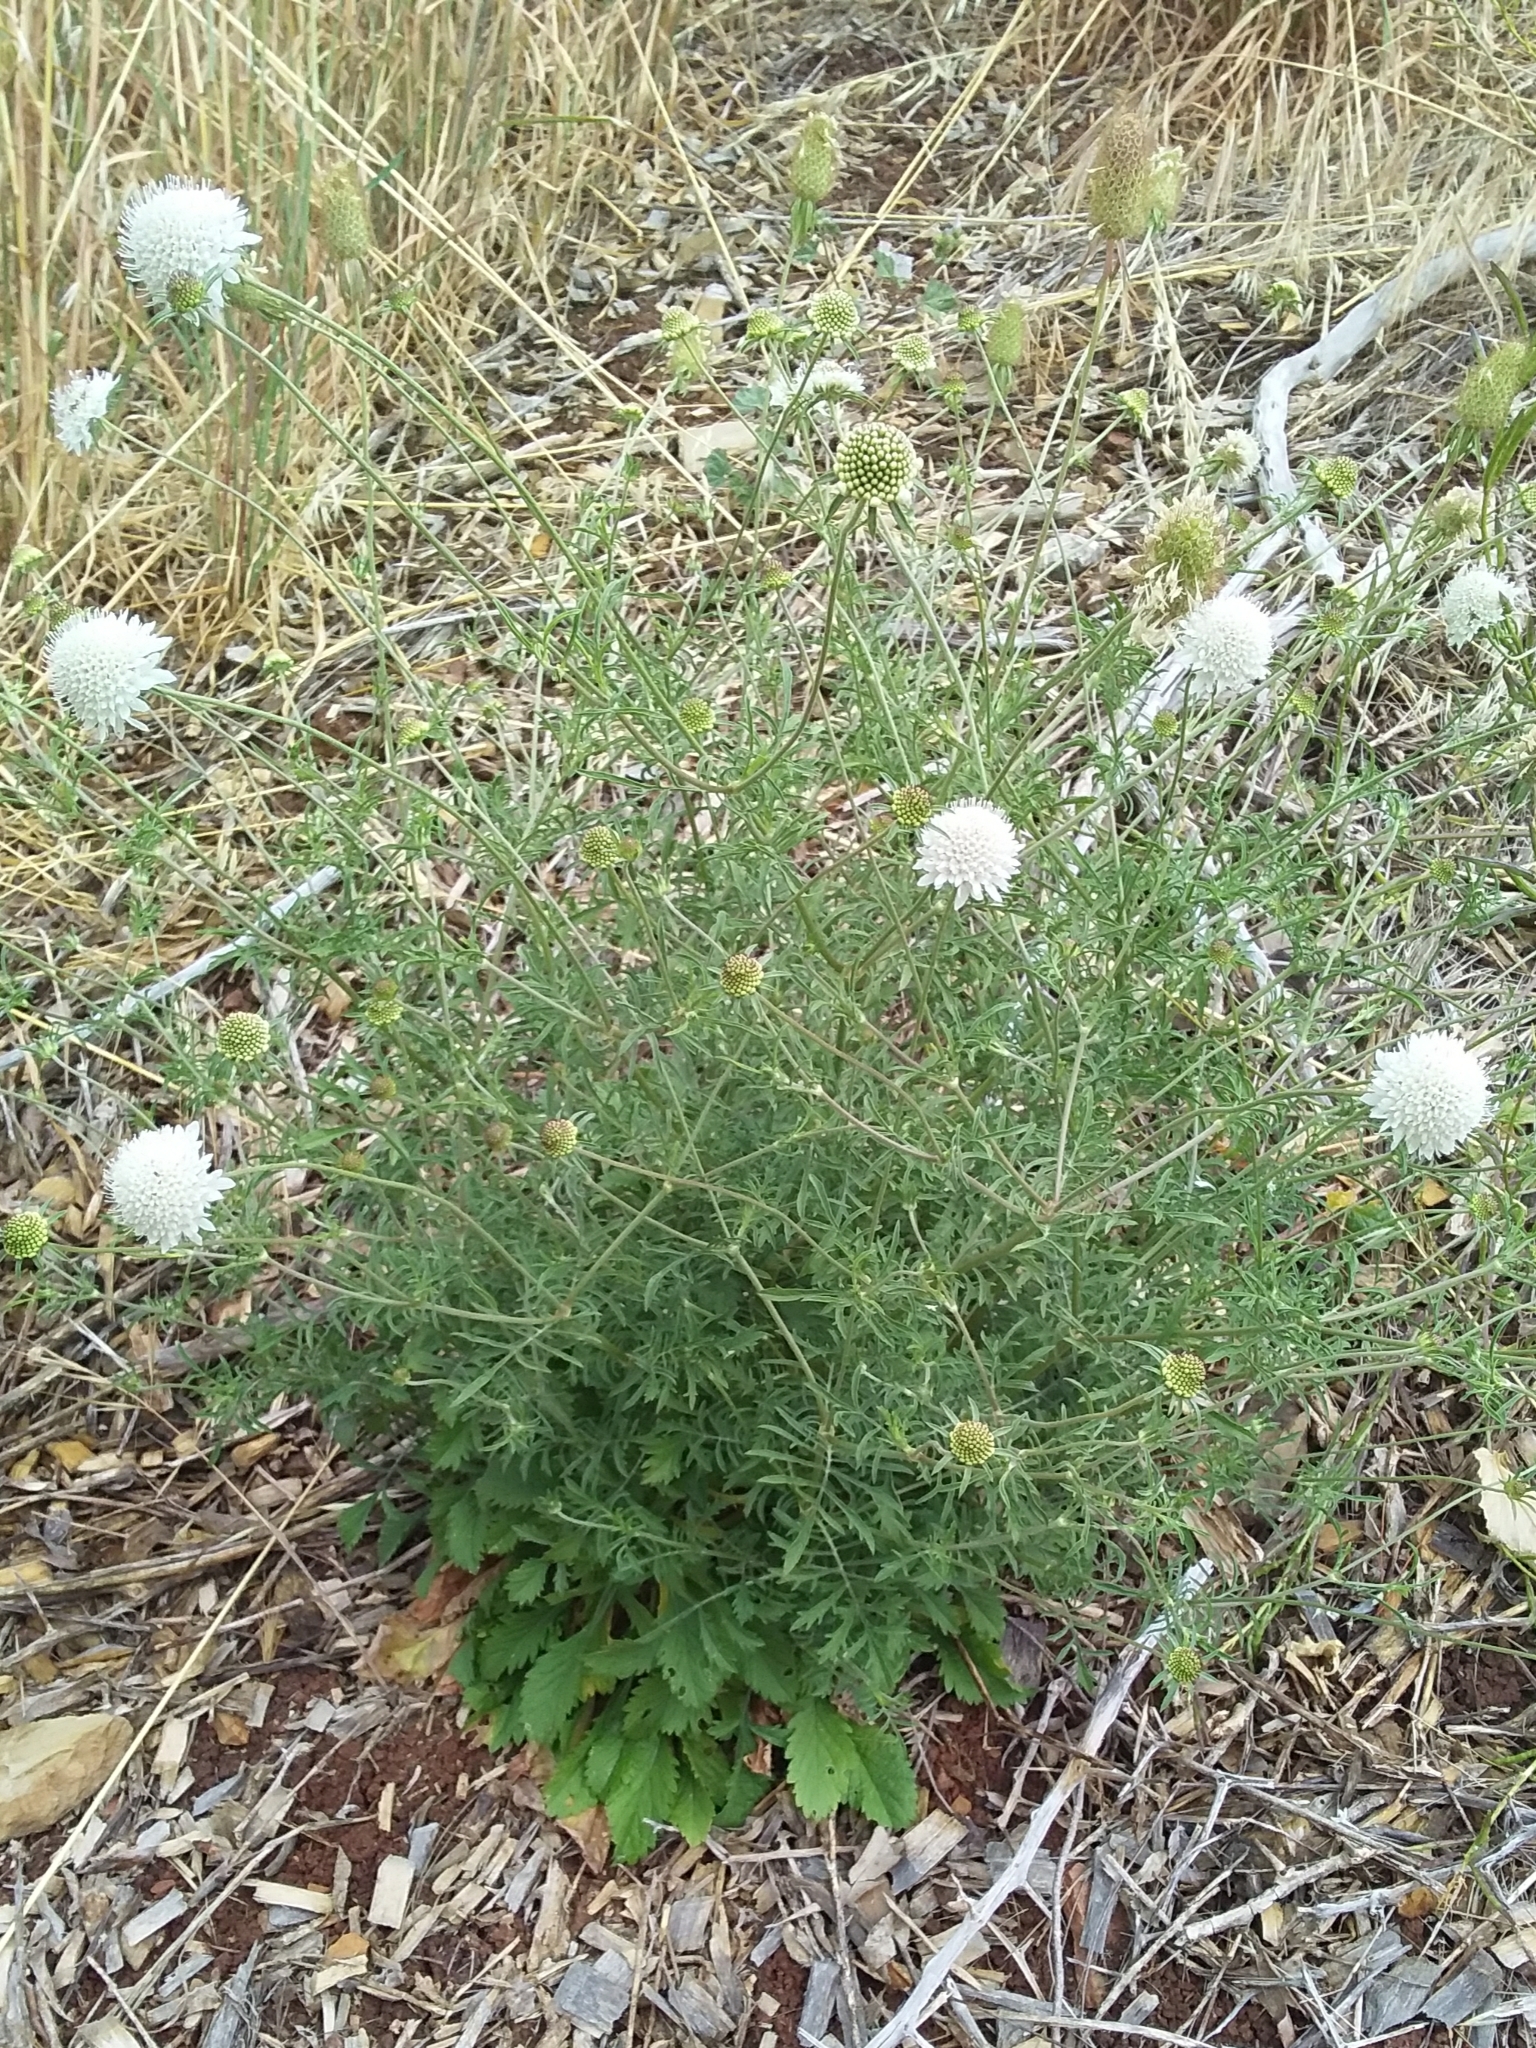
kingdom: Plantae
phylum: Tracheophyta
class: Magnoliopsida
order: Dipsacales
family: Caprifoliaceae
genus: Sixalix
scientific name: Sixalix atropurpurea
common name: Sweet scabious
